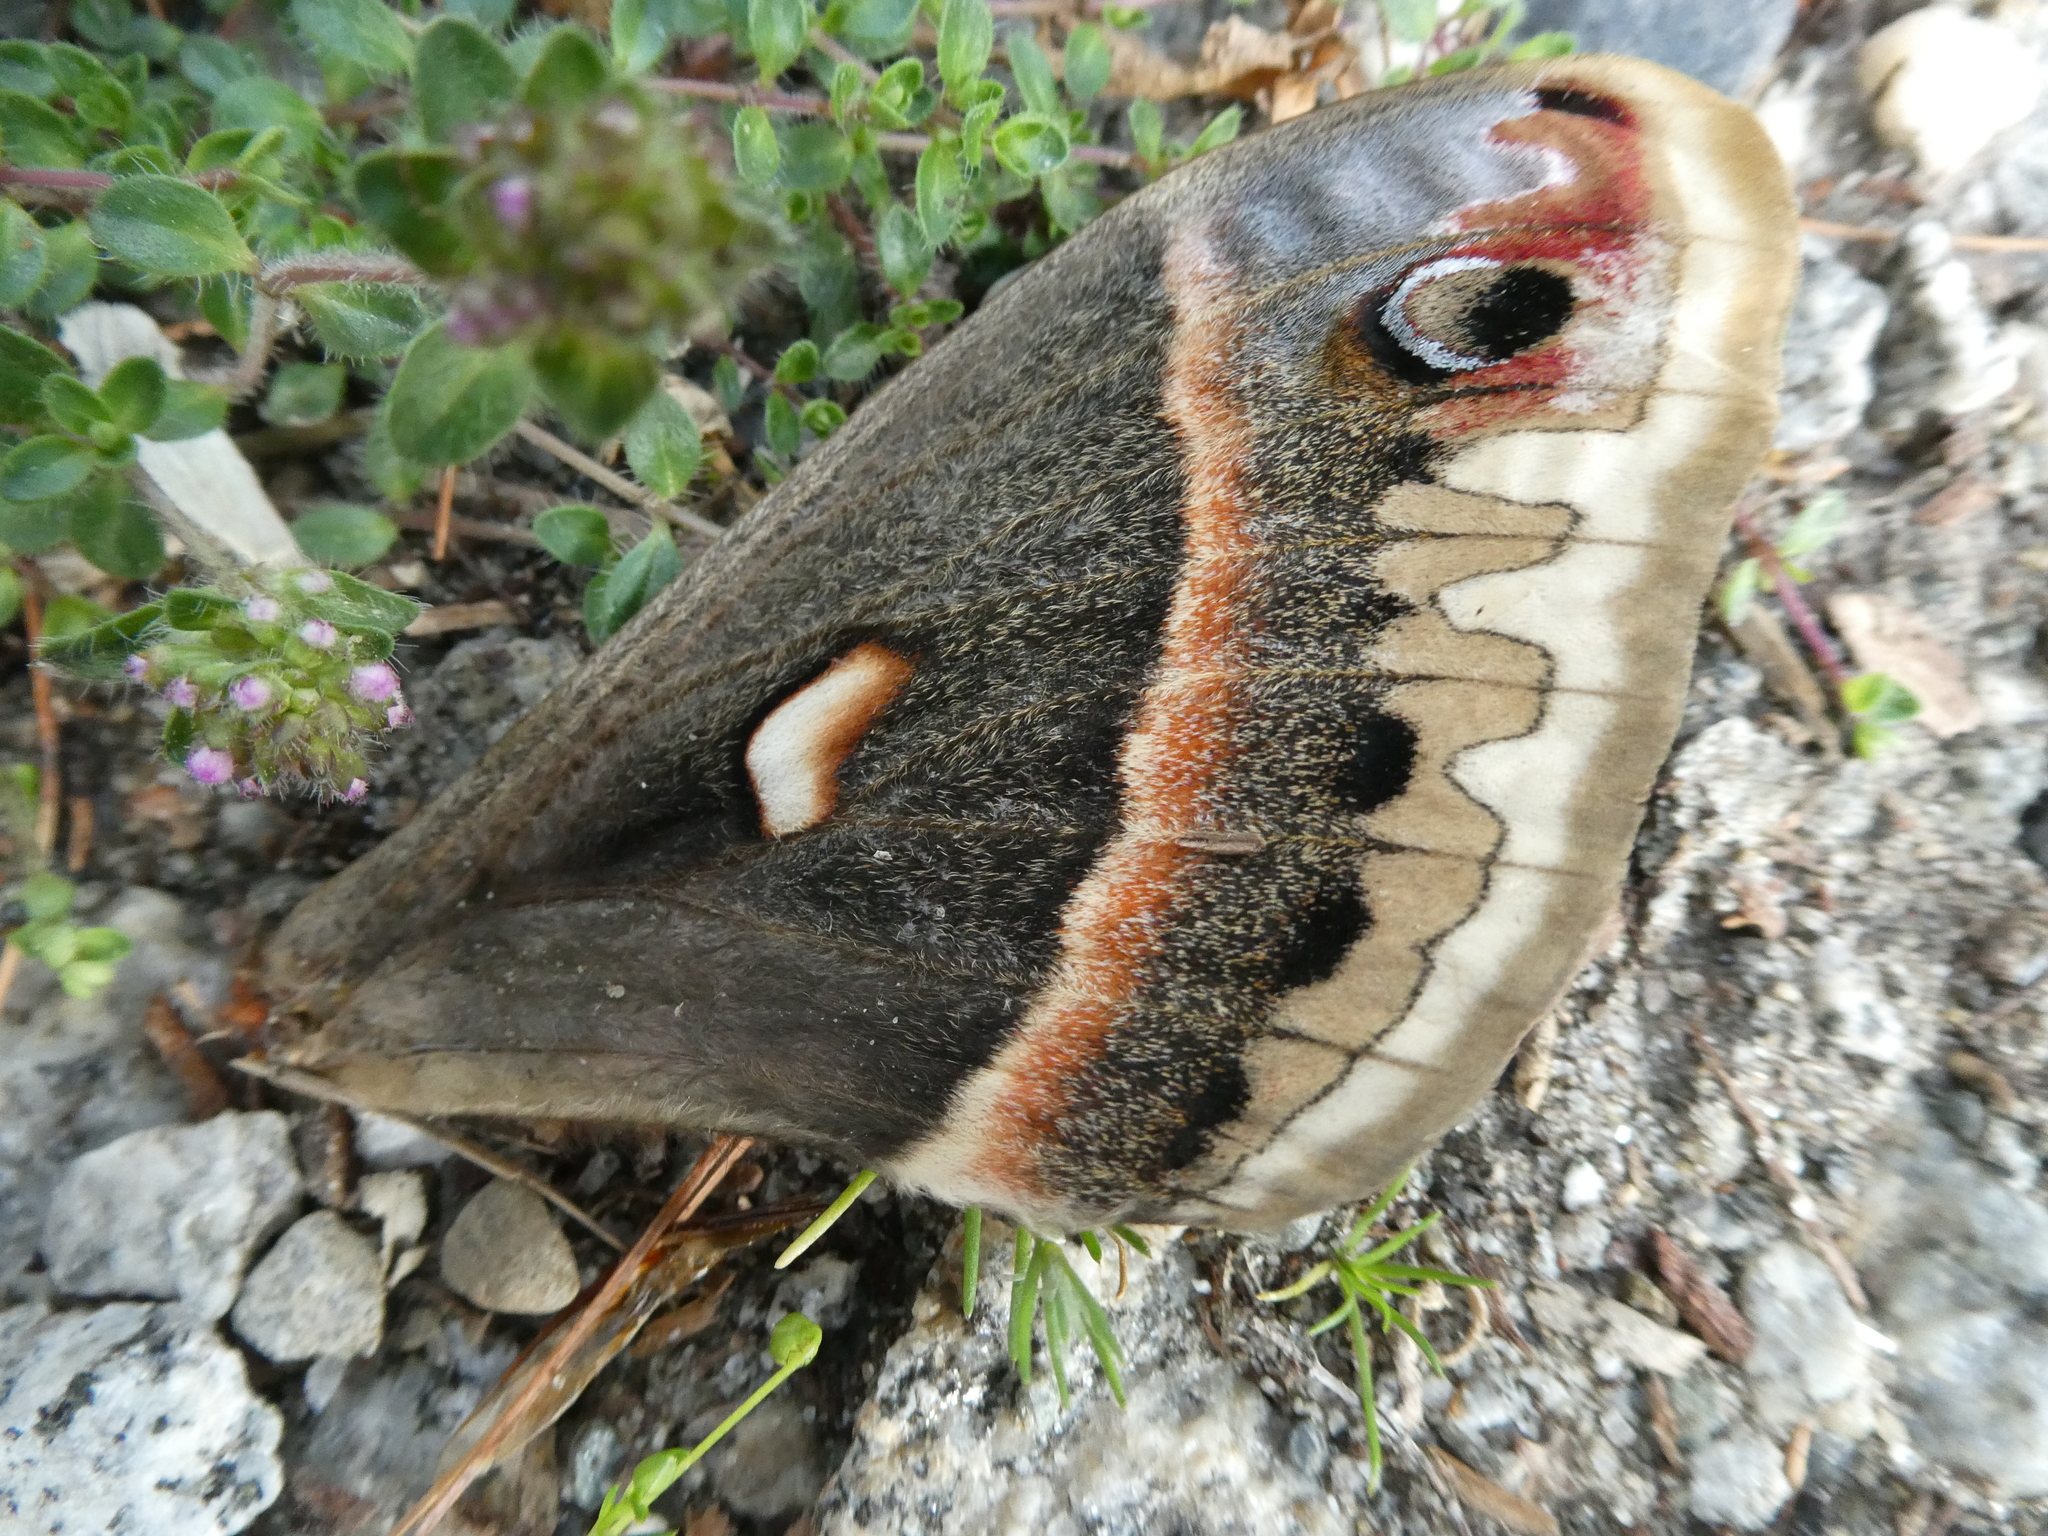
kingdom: Animalia
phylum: Arthropoda
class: Insecta
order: Lepidoptera
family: Saturniidae
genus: Hyalophora
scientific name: Hyalophora cecropia
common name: Cecropia silkmoth
